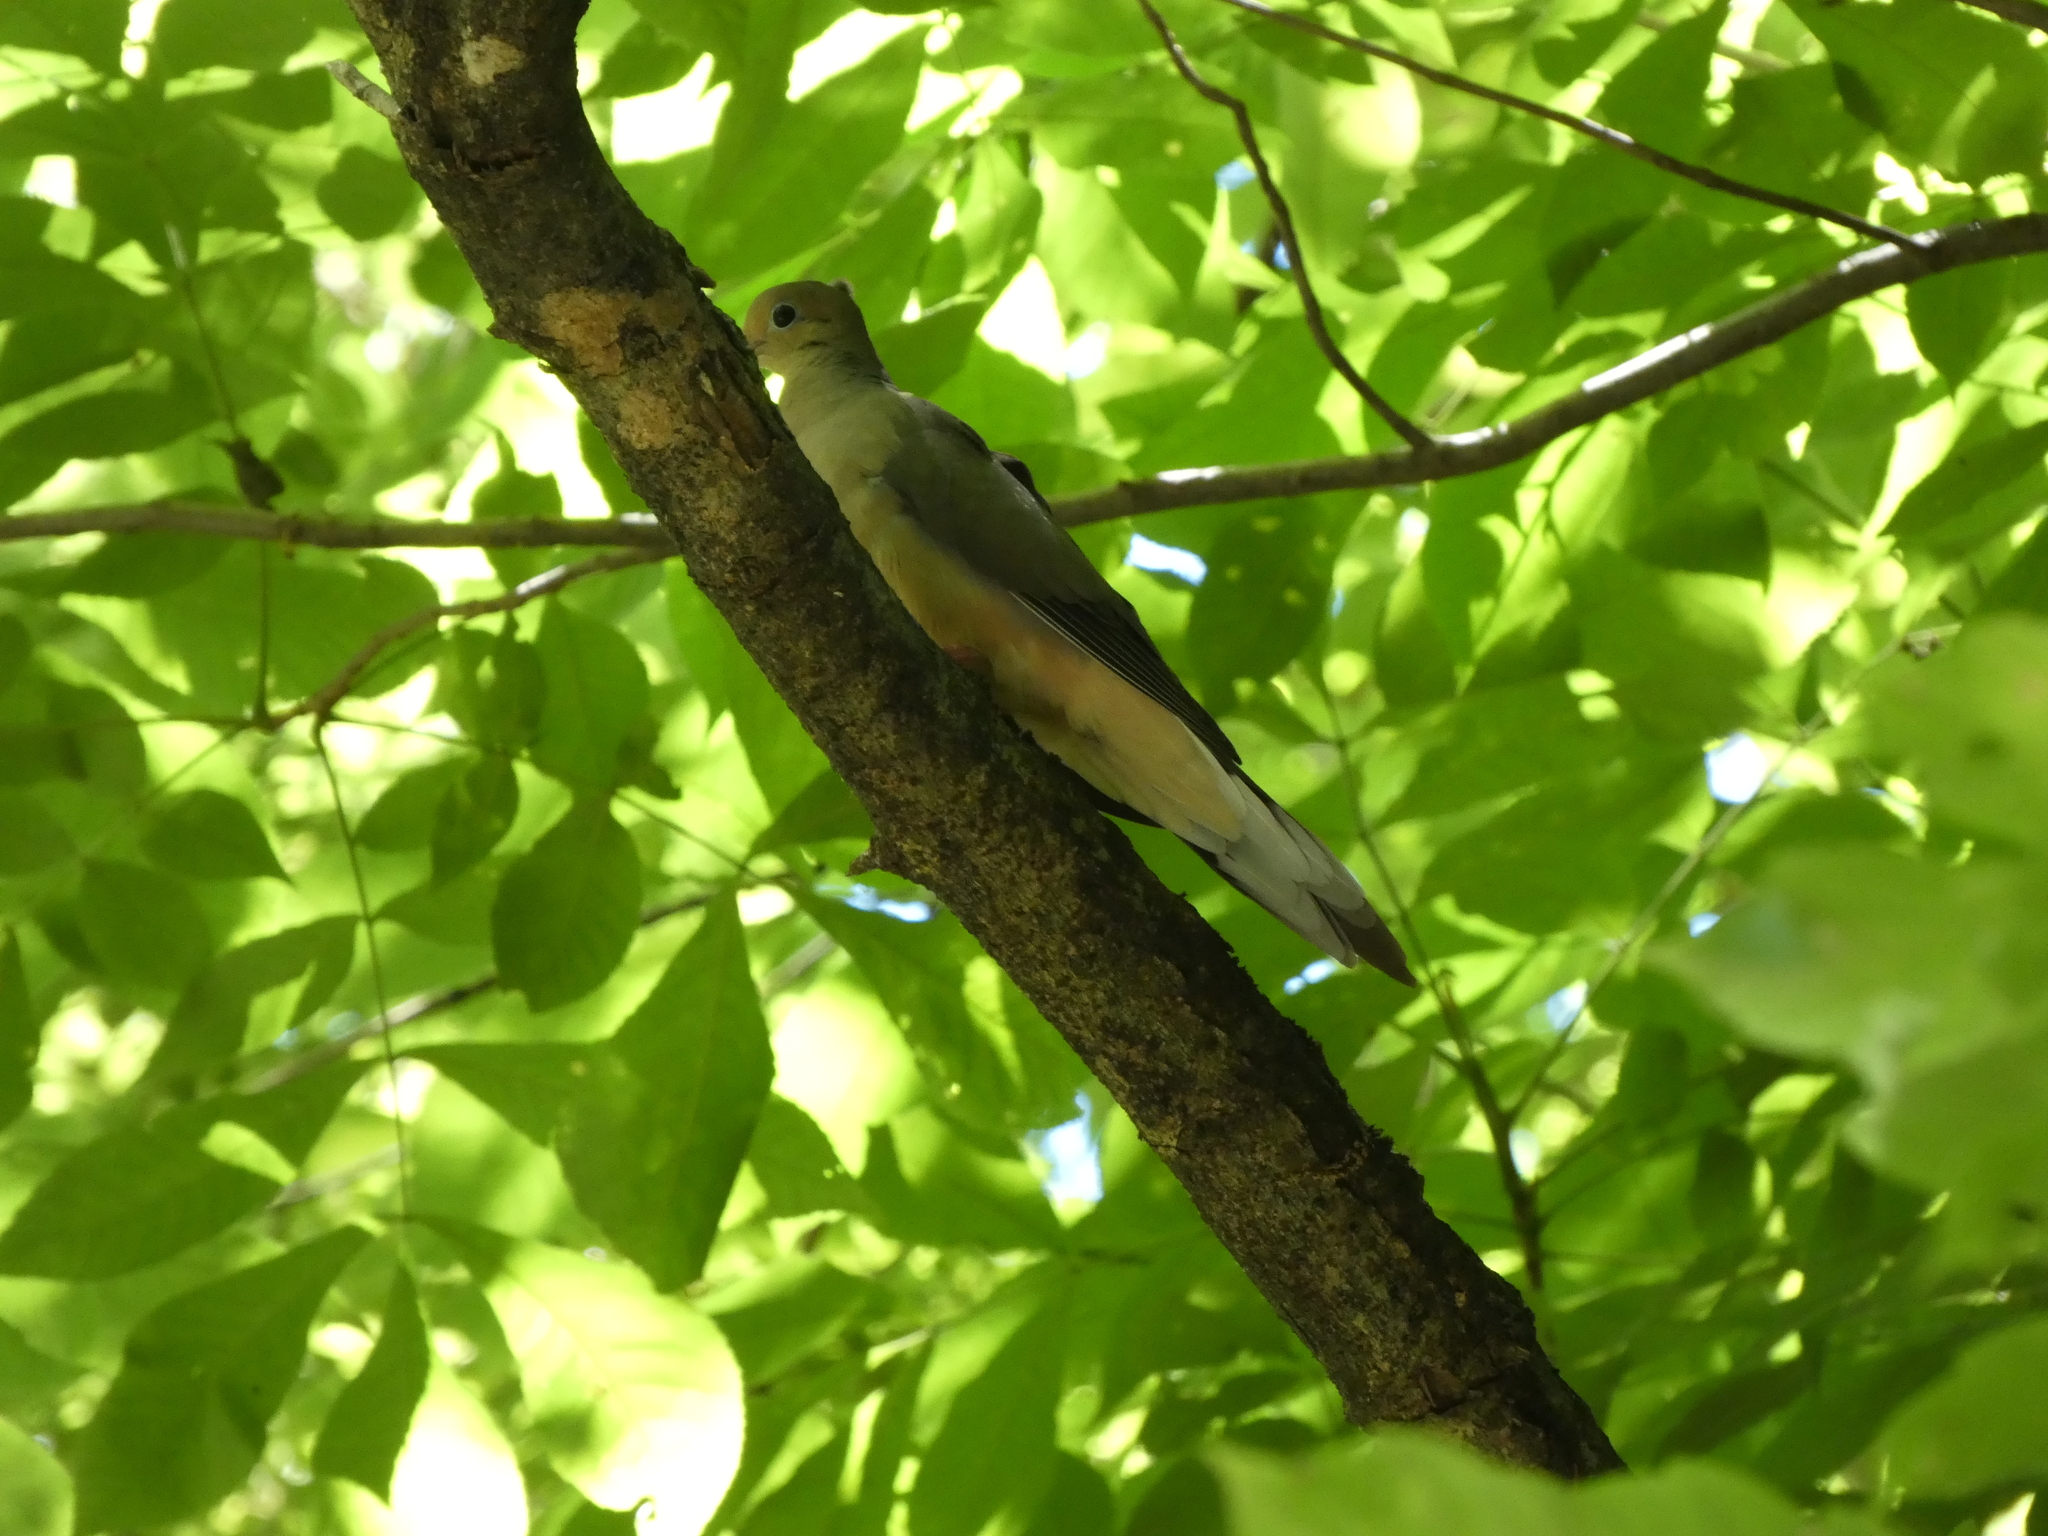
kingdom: Animalia
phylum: Chordata
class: Aves
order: Columbiformes
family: Columbidae
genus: Zenaida
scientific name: Zenaida macroura
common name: Mourning dove
